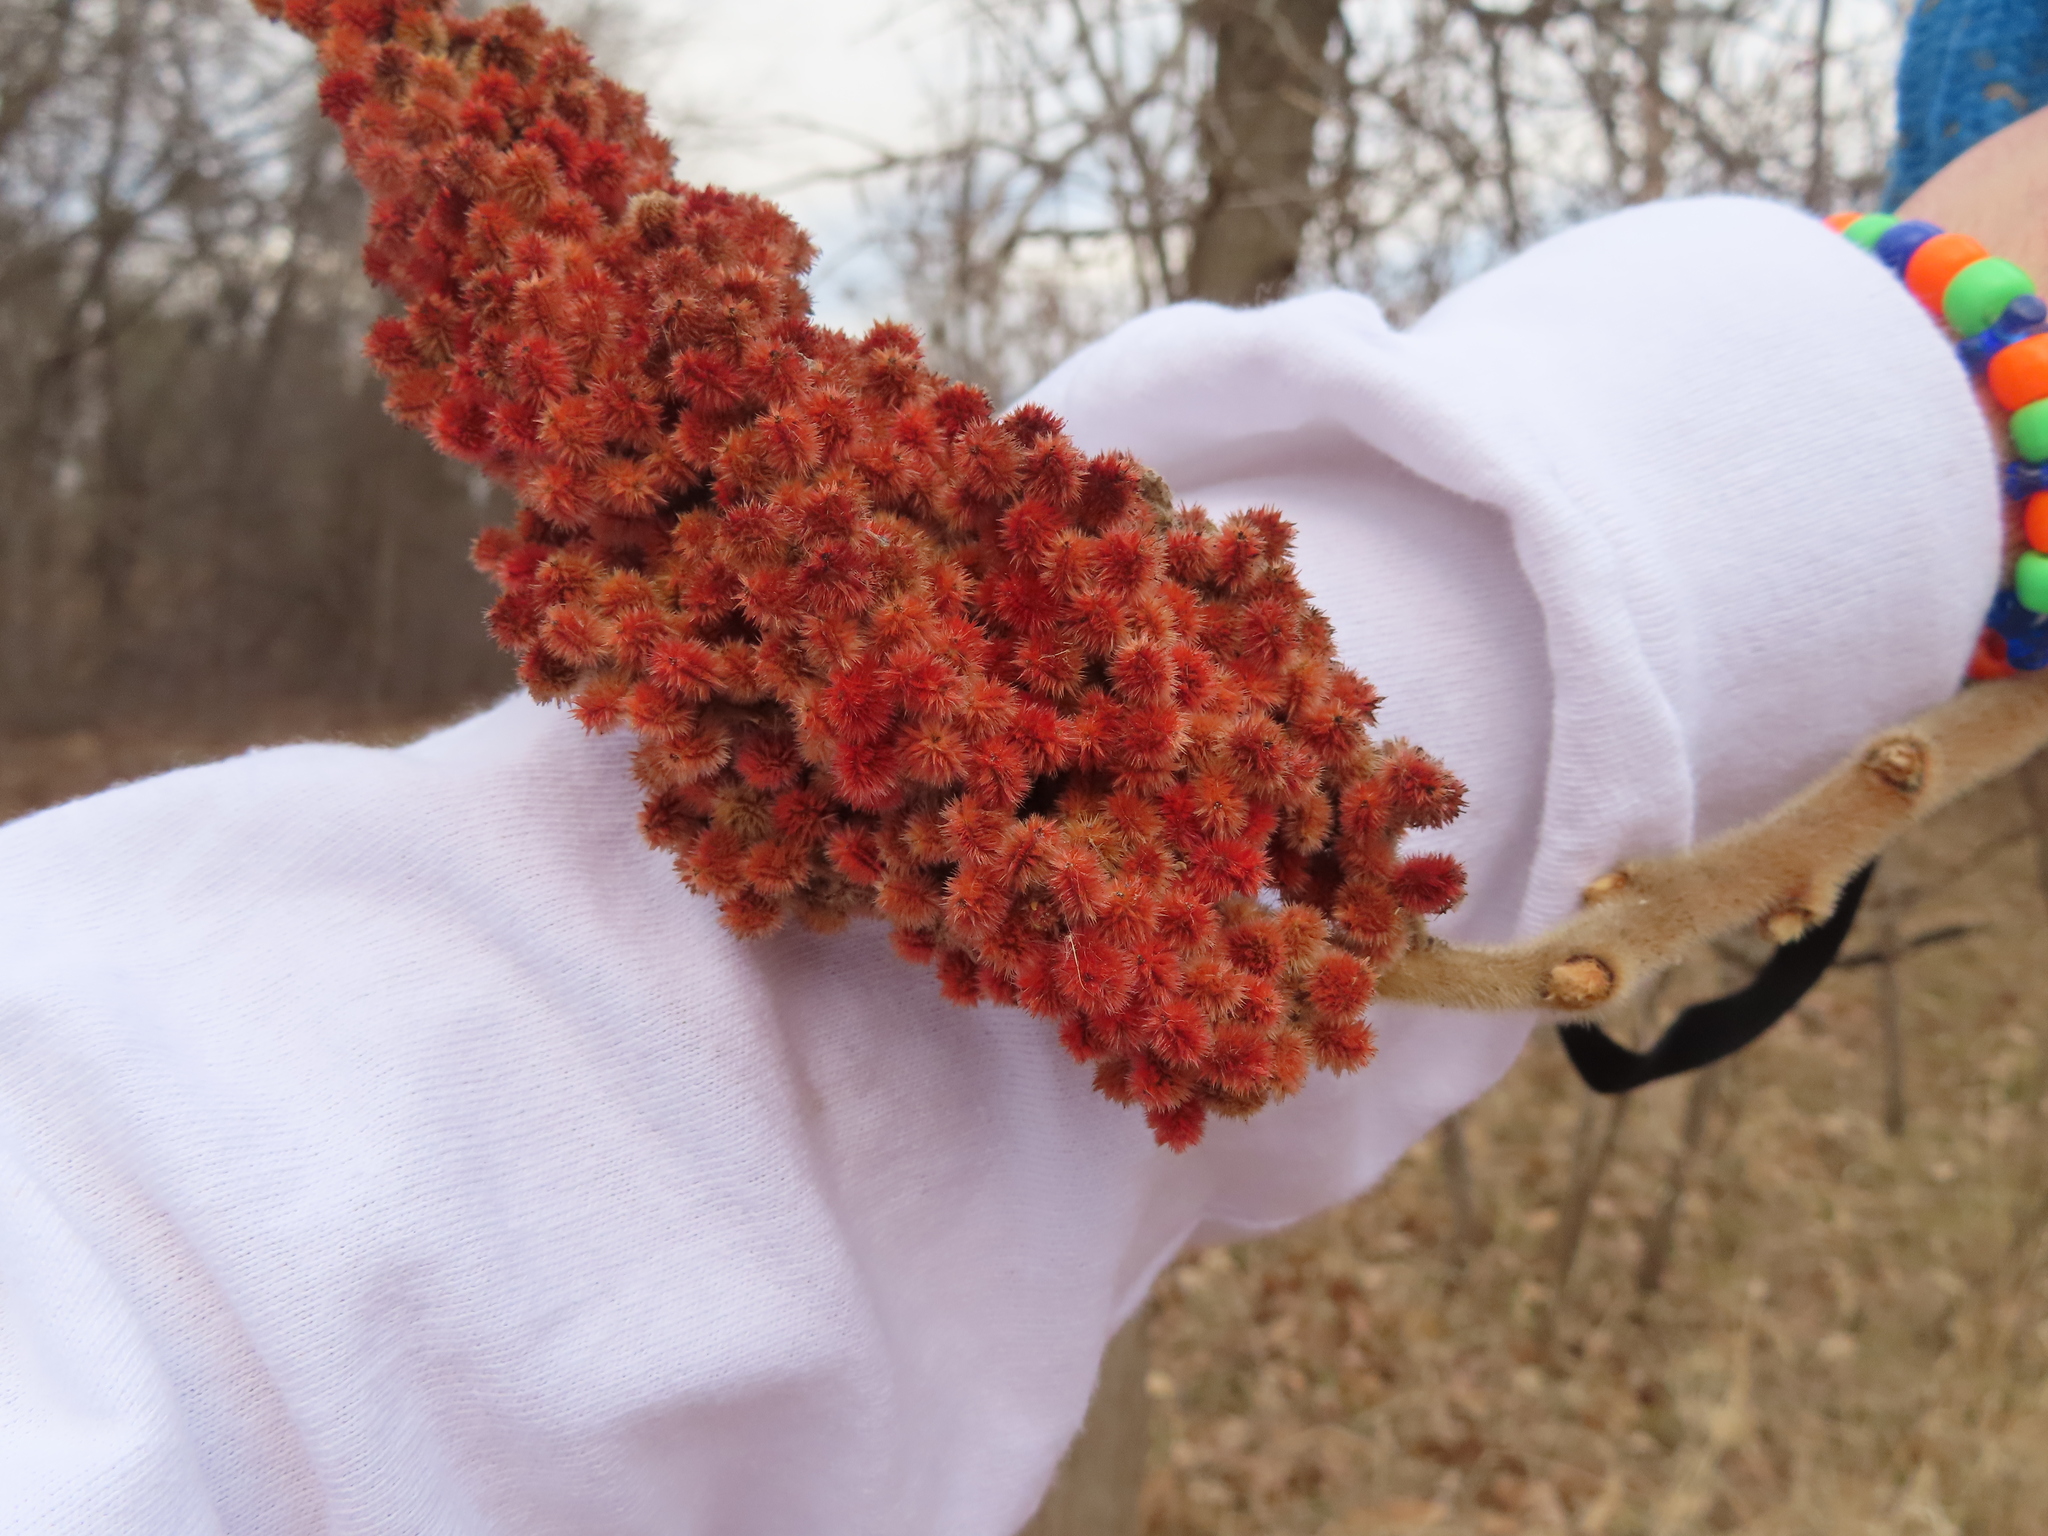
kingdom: Plantae
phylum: Tracheophyta
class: Magnoliopsida
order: Sapindales
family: Anacardiaceae
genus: Rhus
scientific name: Rhus typhina
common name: Staghorn sumac
